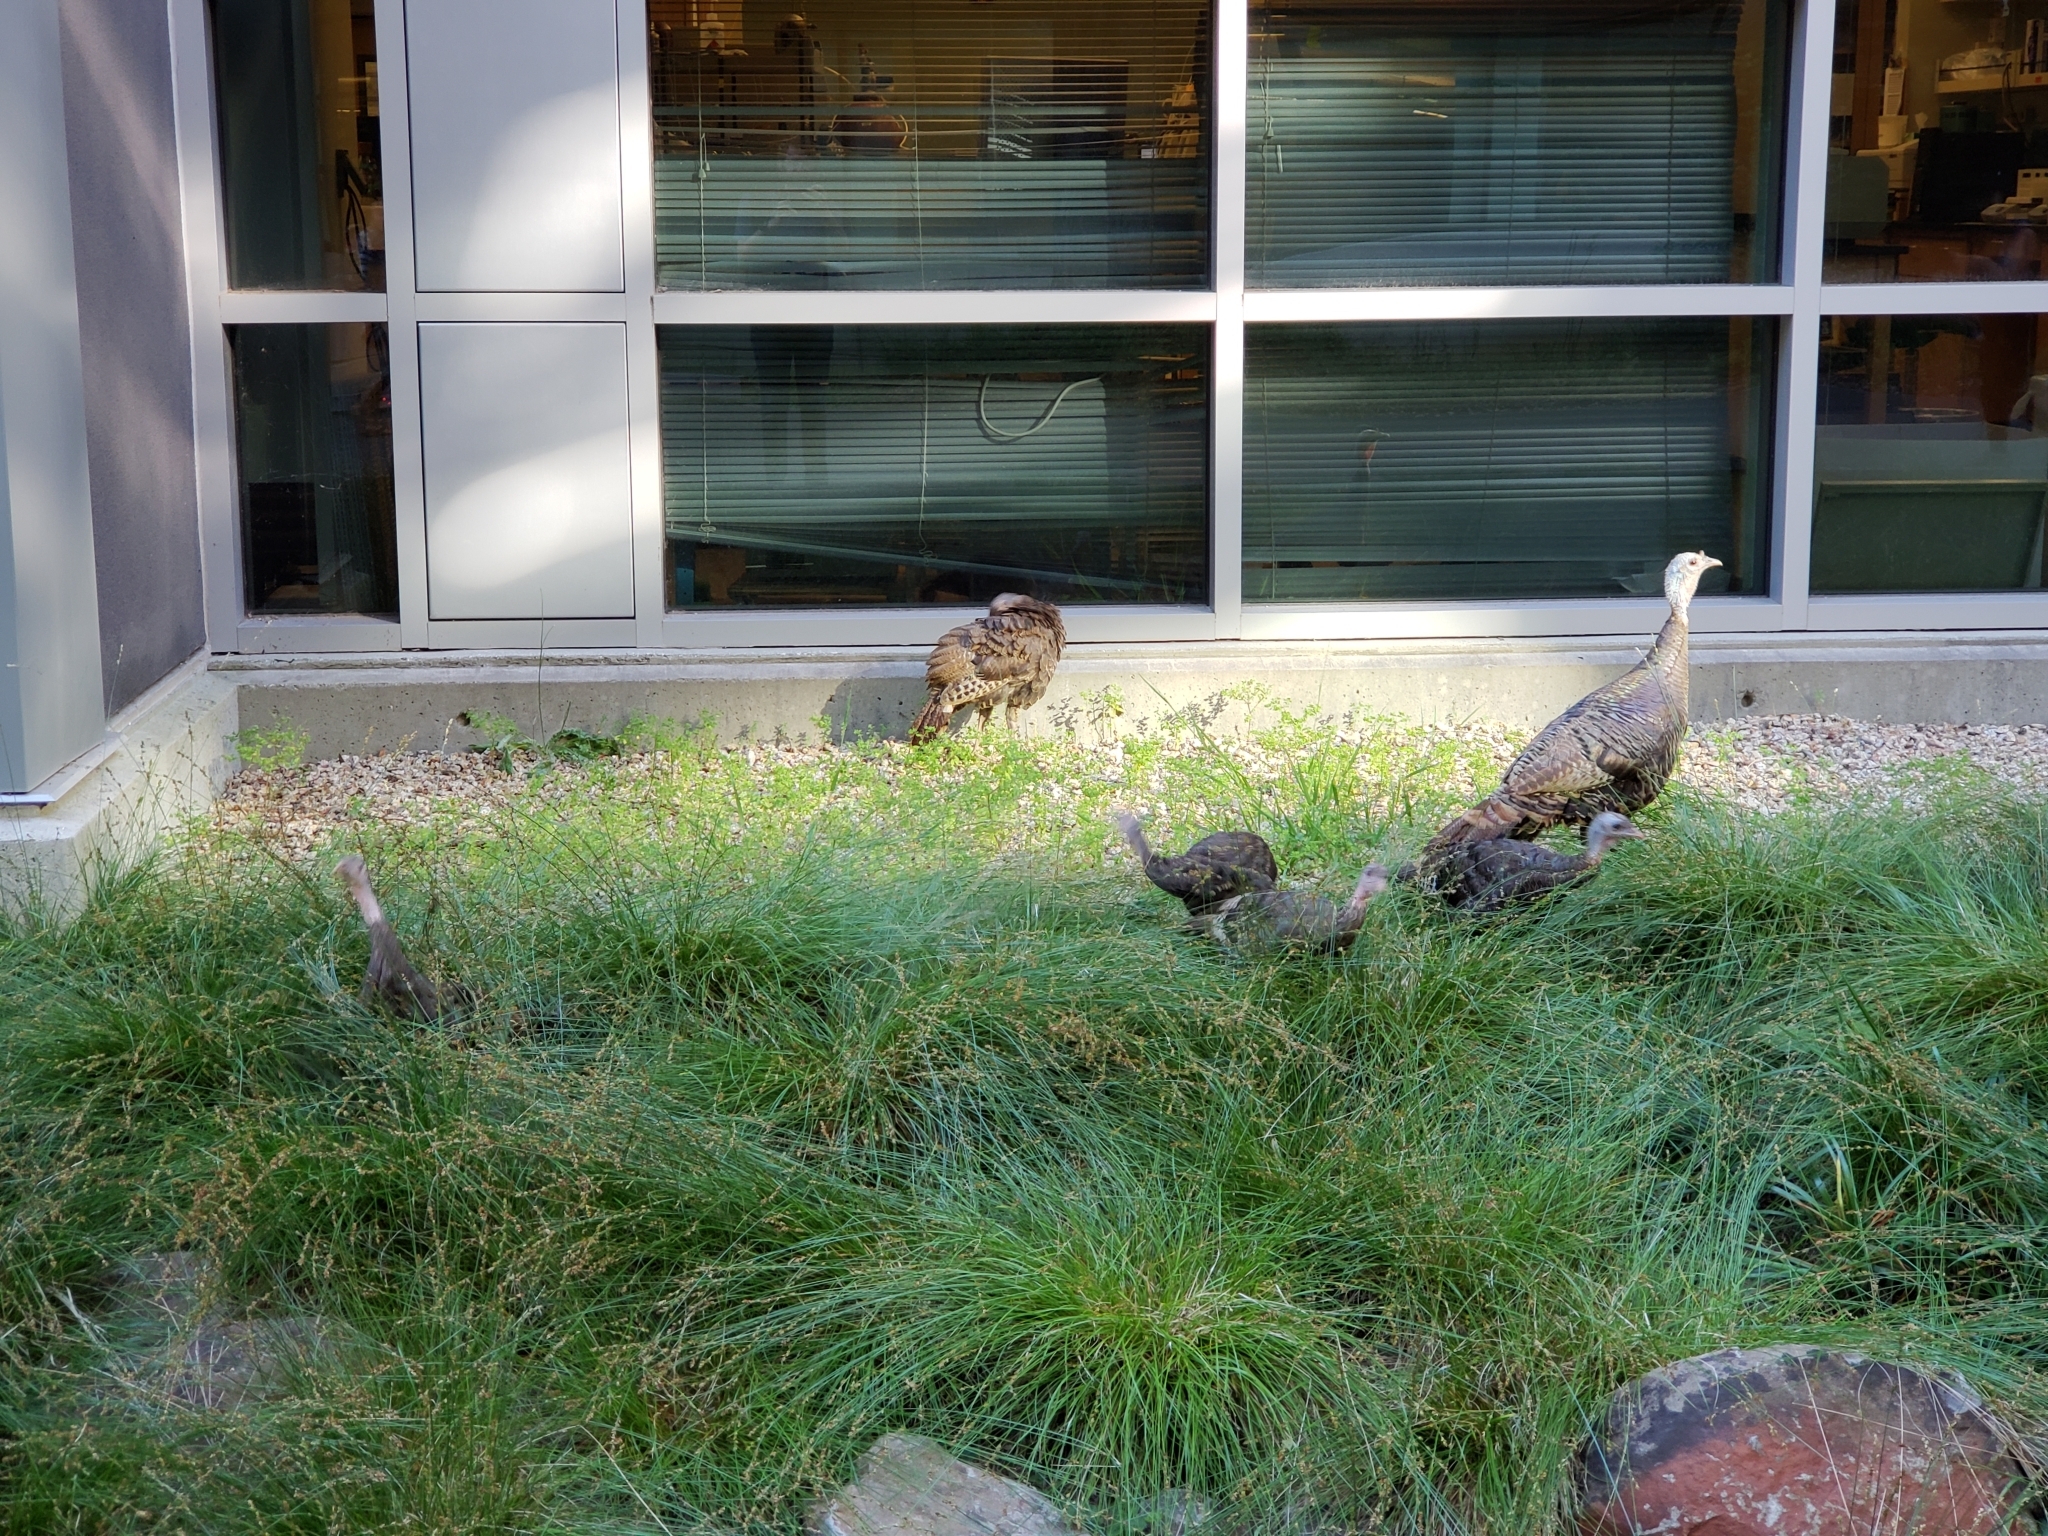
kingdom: Animalia
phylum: Chordata
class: Aves
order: Galliformes
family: Phasianidae
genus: Meleagris
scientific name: Meleagris gallopavo
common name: Wild turkey
